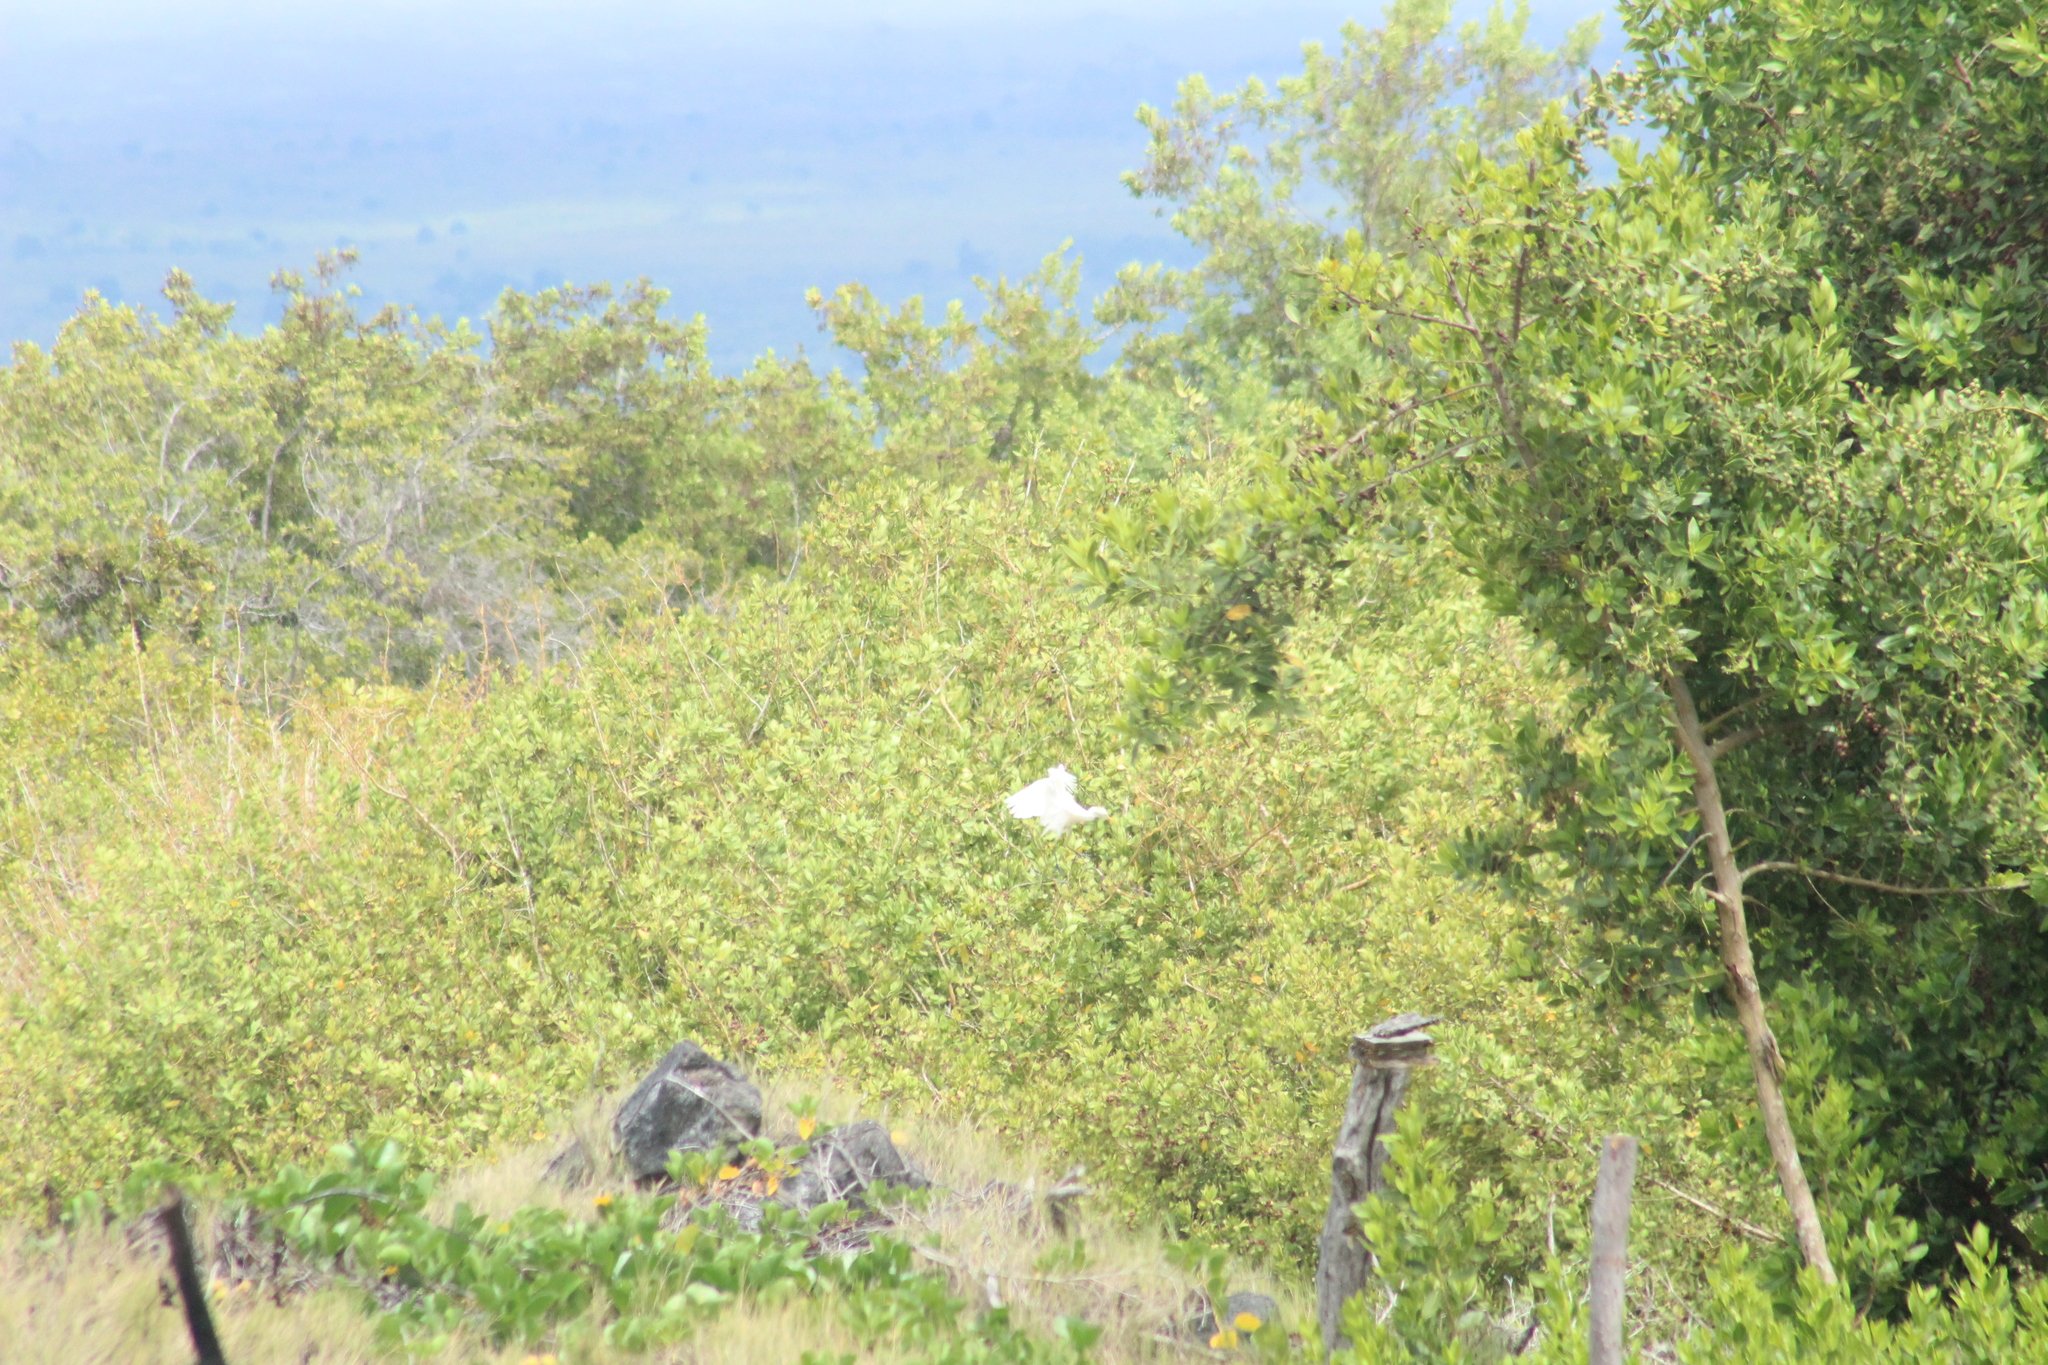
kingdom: Animalia
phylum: Chordata
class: Aves
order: Pelecaniformes
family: Ardeidae
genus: Bubulcus
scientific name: Bubulcus ibis
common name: Cattle egret
